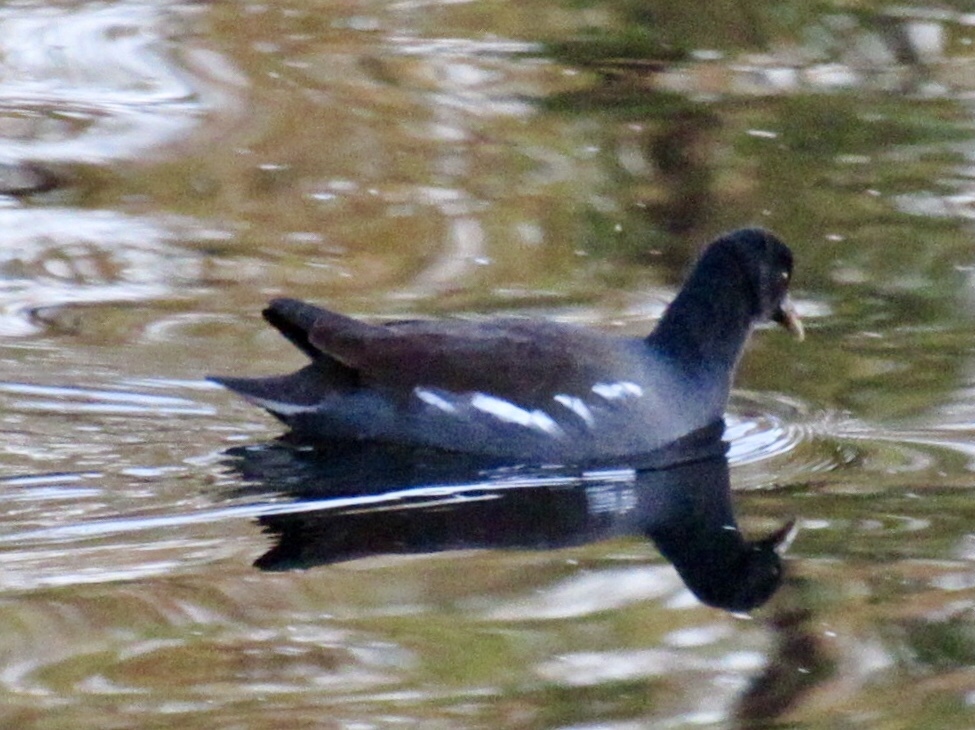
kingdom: Animalia
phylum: Chordata
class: Aves
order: Gruiformes
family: Rallidae
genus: Gallinula
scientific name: Gallinula chloropus
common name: Common moorhen
